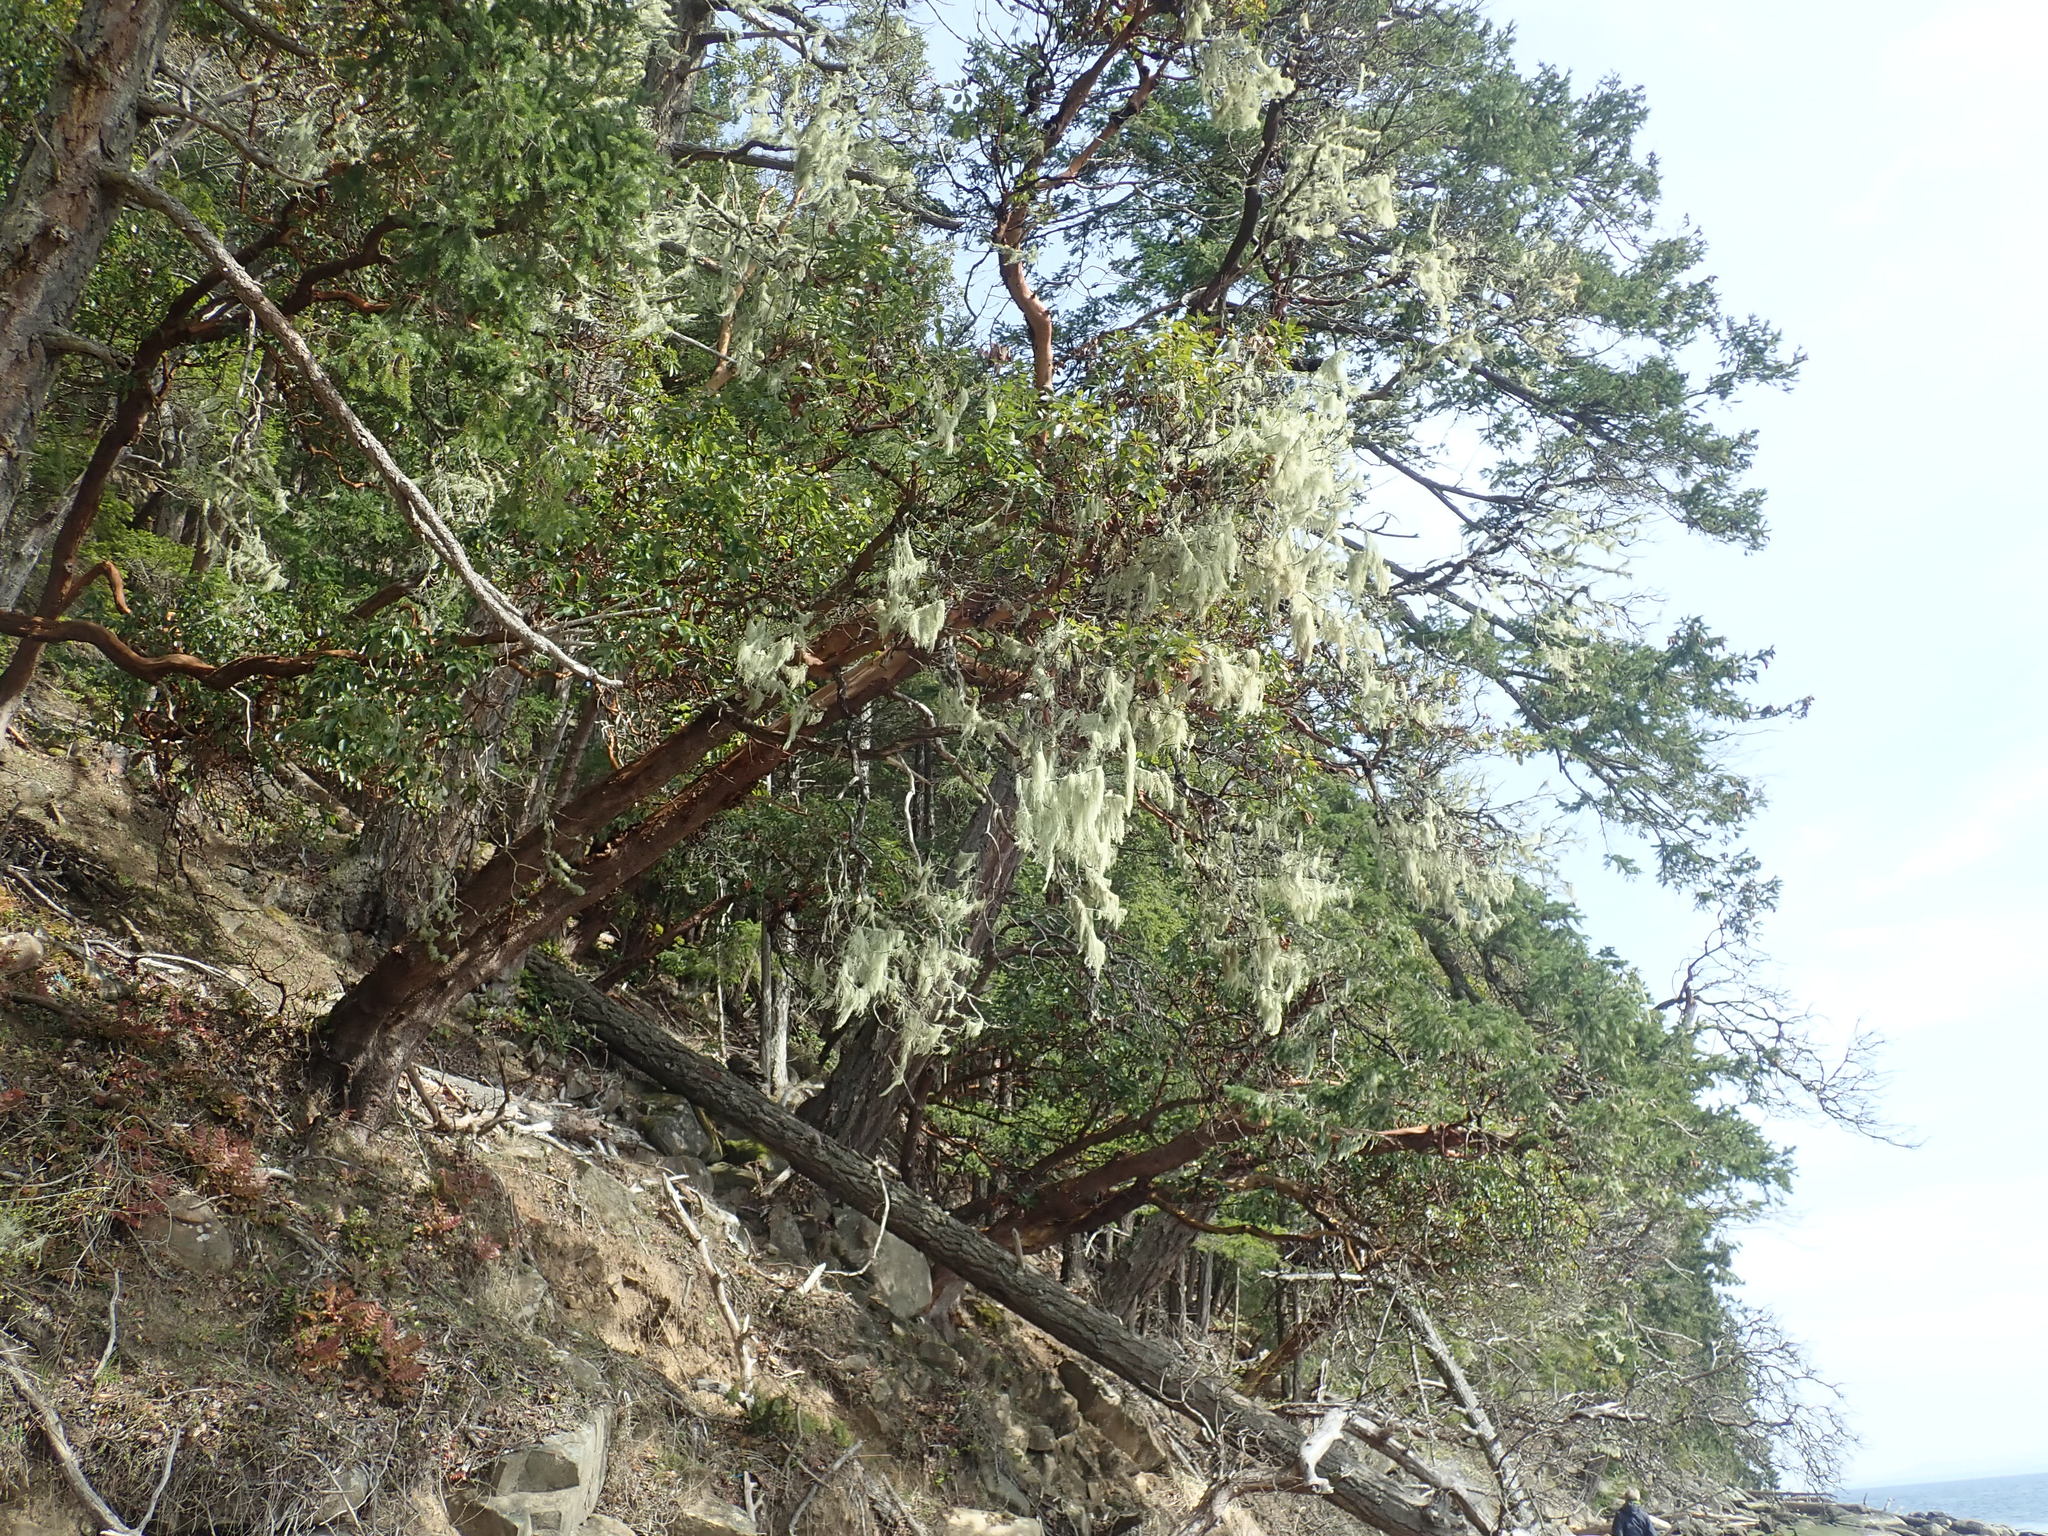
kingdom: Plantae
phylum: Tracheophyta
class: Magnoliopsida
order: Ericales
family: Ericaceae
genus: Arbutus
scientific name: Arbutus menziesii
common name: Pacific madrone
